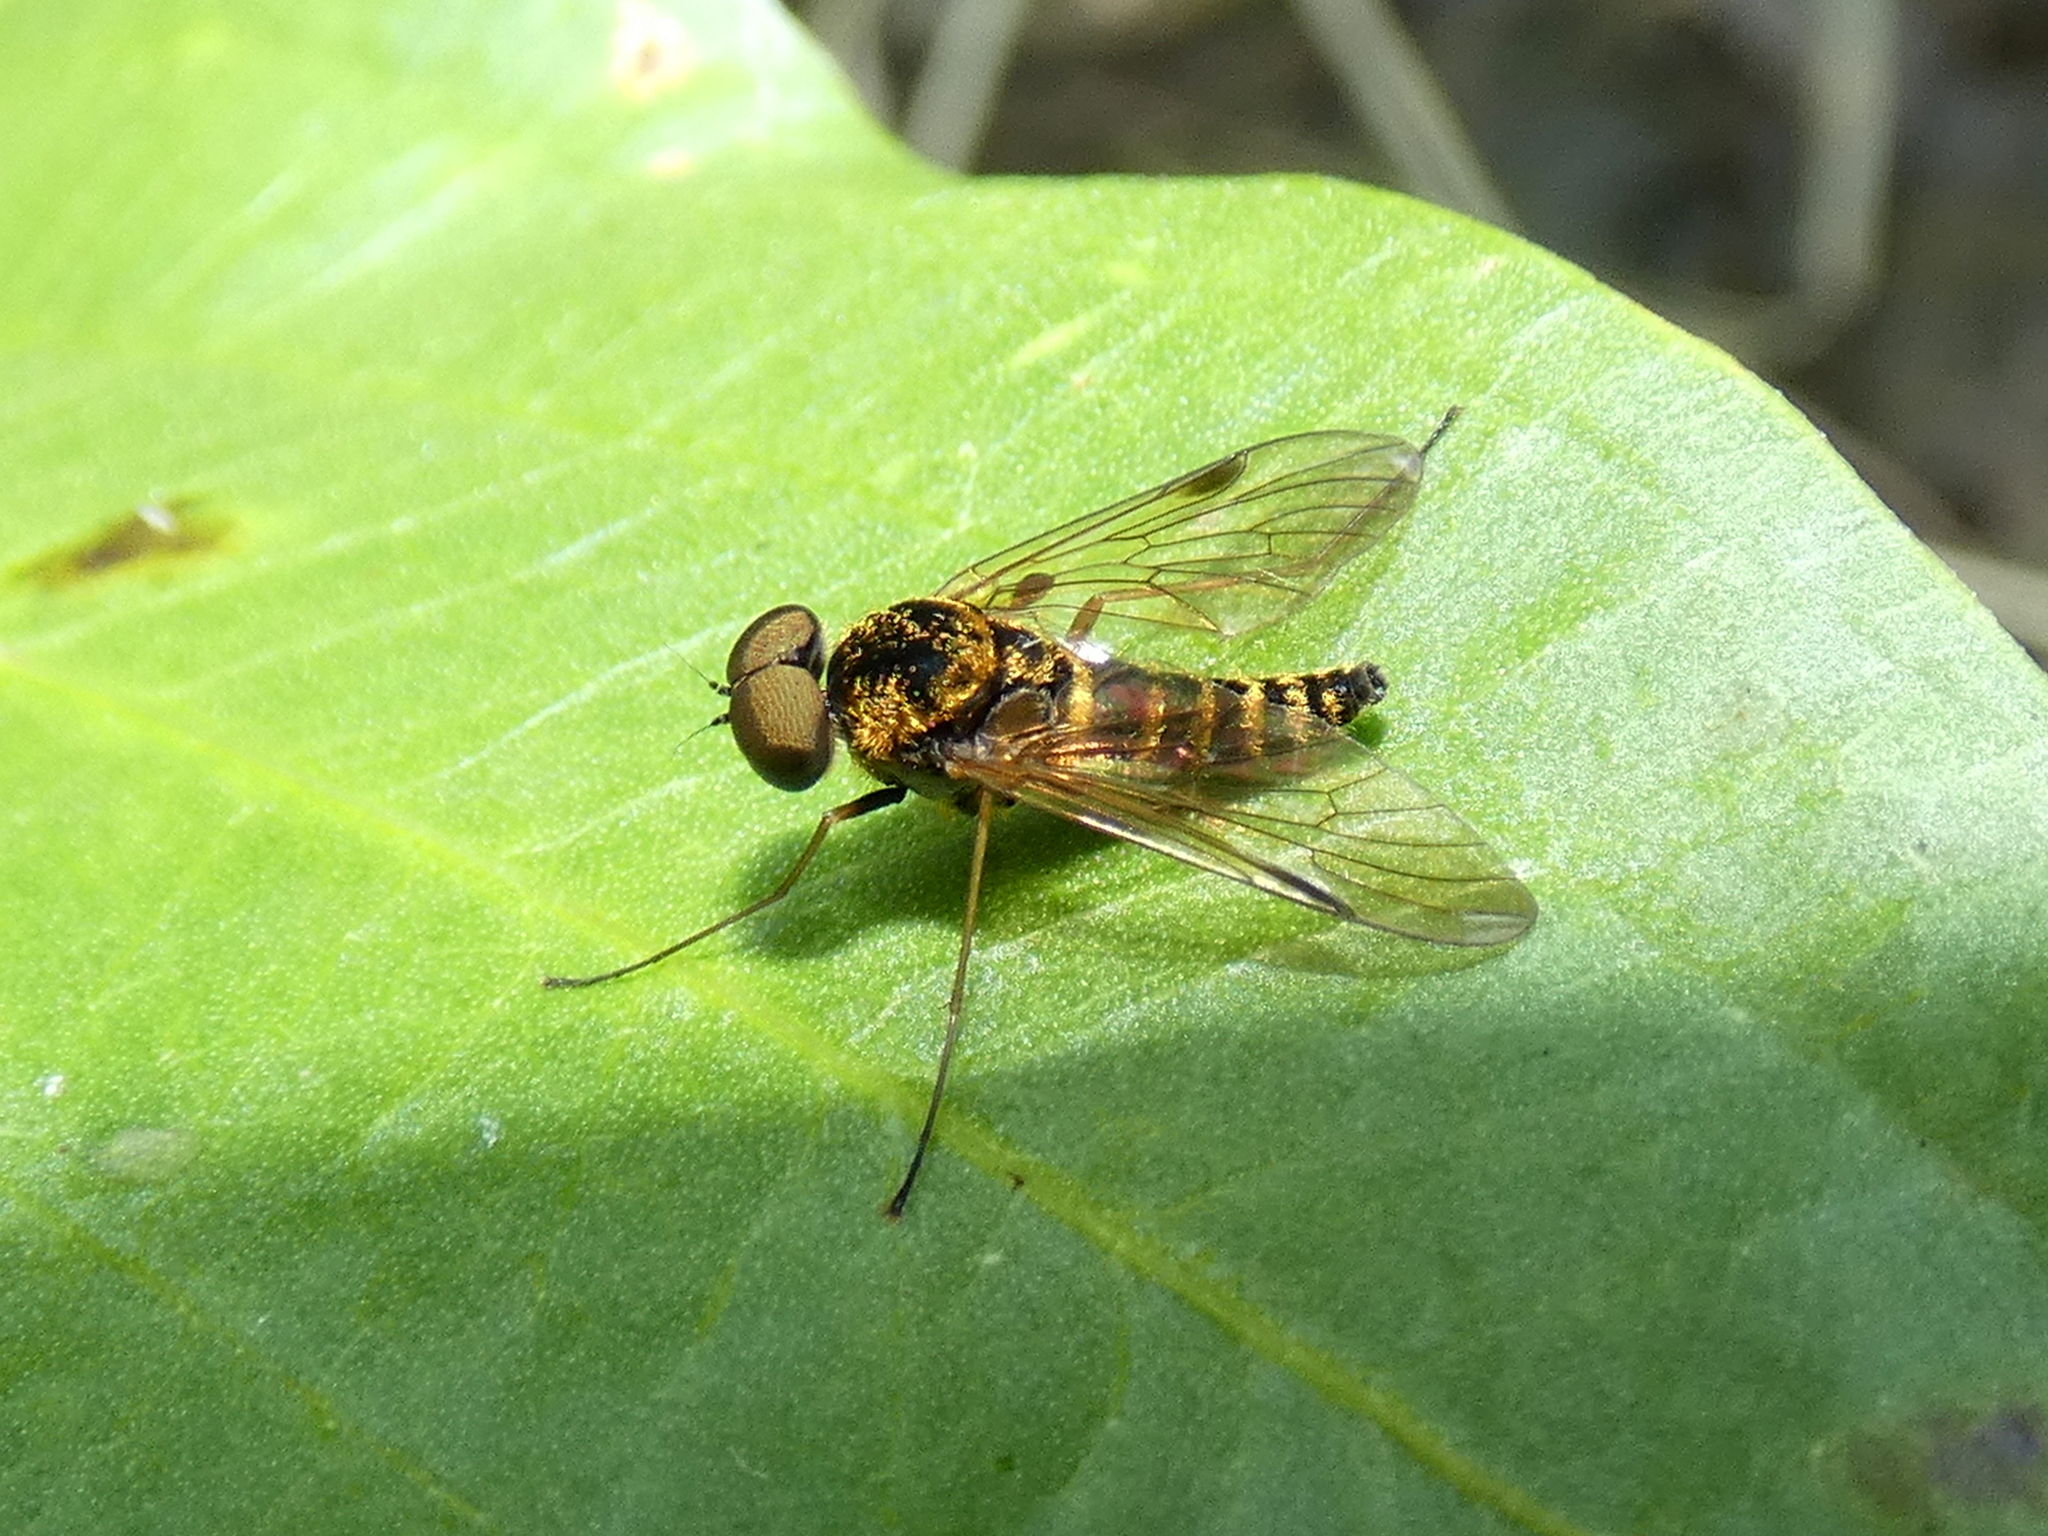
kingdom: Animalia
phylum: Arthropoda
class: Insecta
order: Diptera
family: Rhagionidae
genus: Chrysopilus
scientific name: Chrysopilus fasciatus
